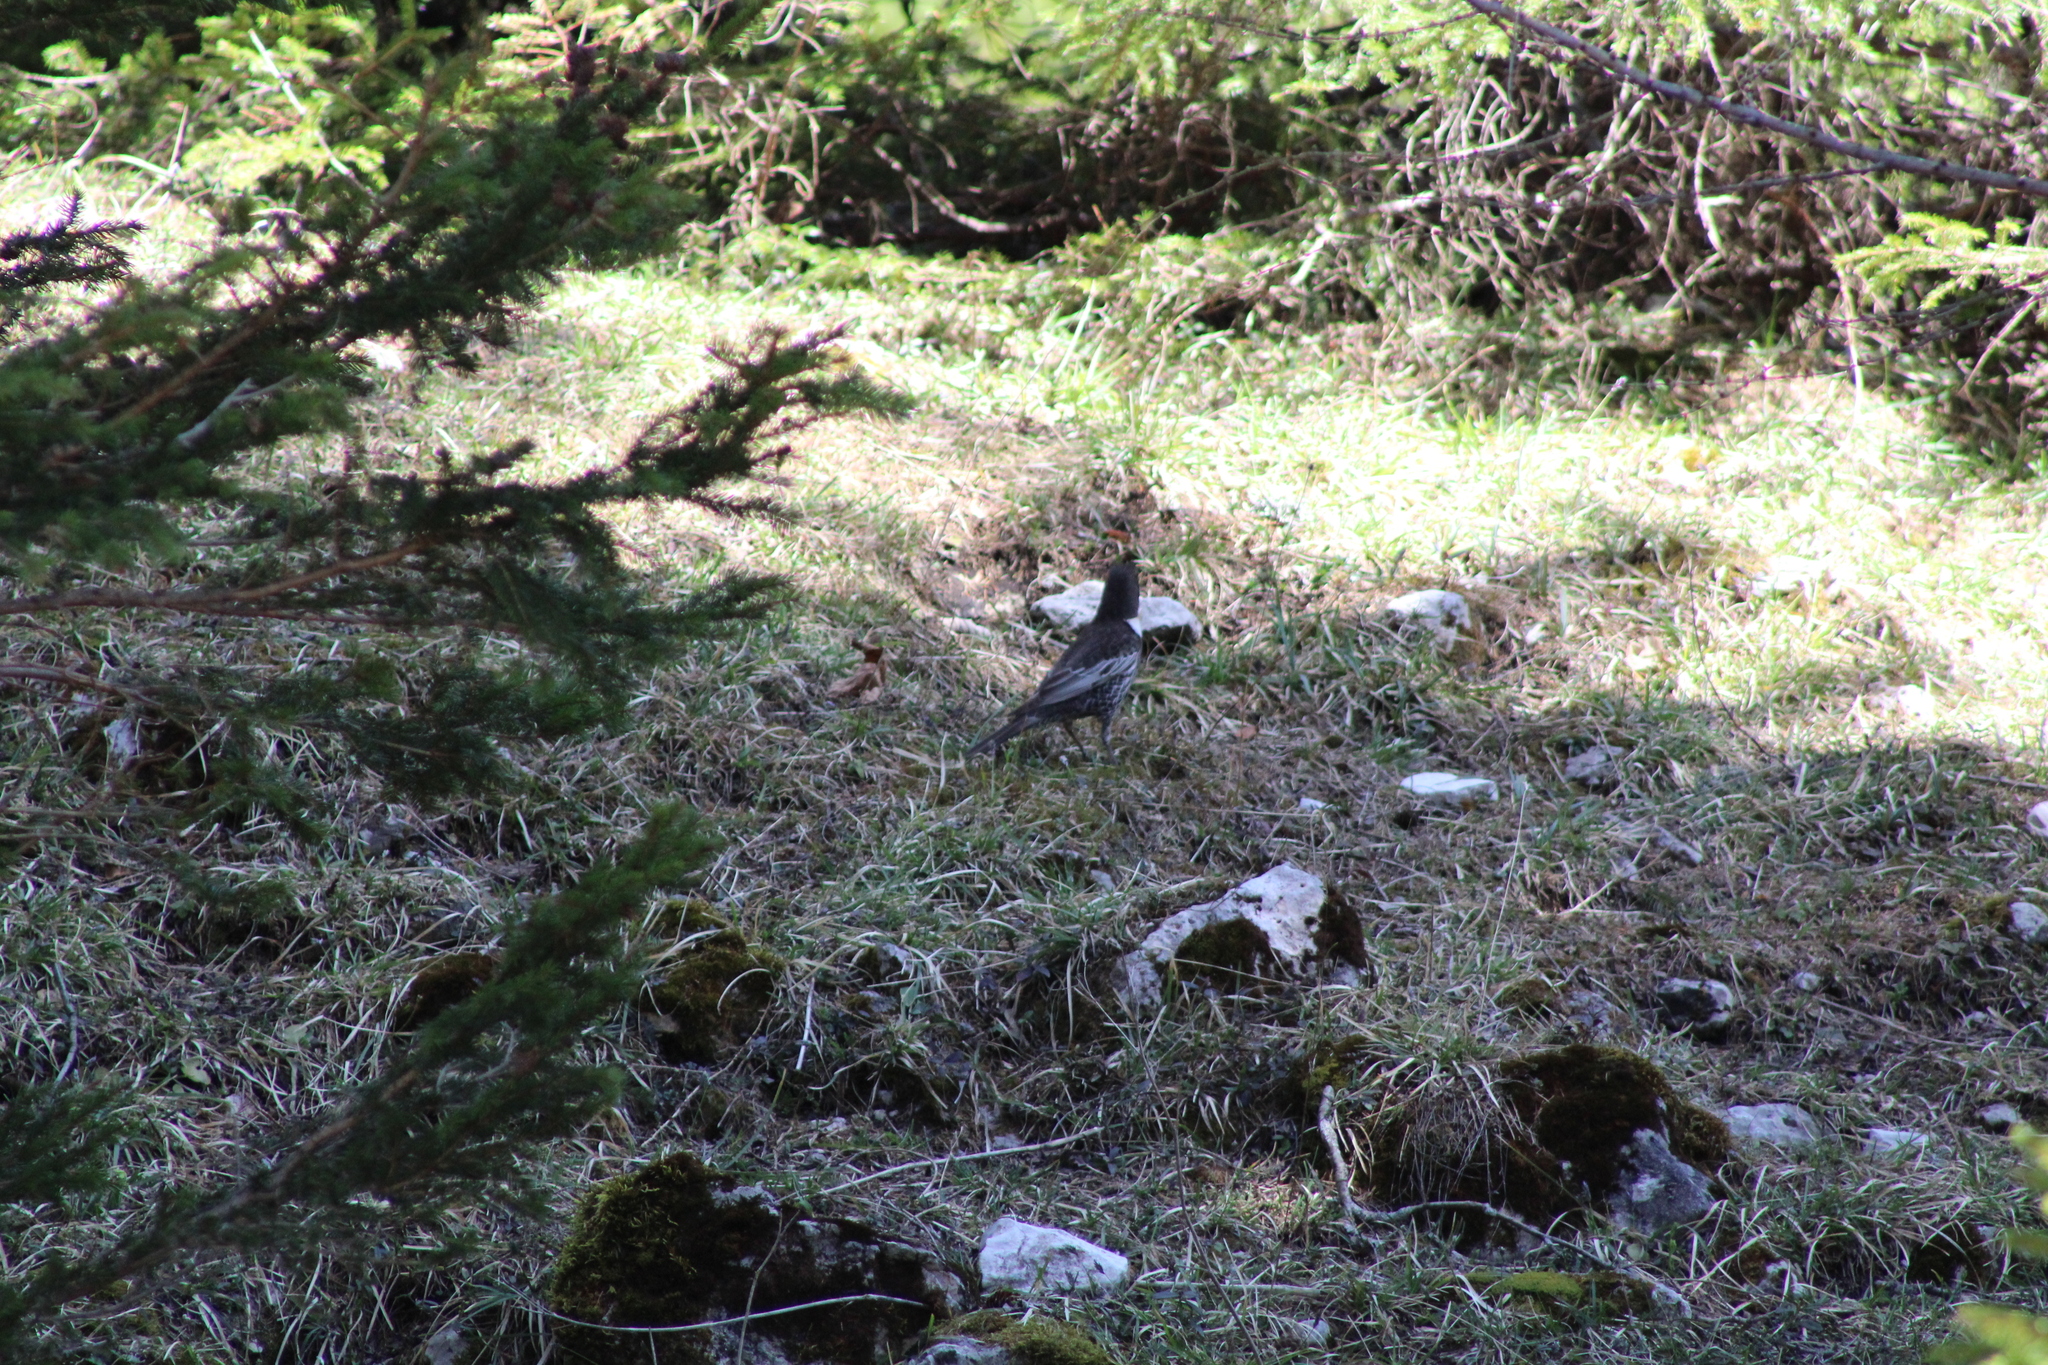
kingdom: Animalia
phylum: Chordata
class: Aves
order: Passeriformes
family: Turdidae
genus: Turdus
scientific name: Turdus torquatus
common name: Ring ouzel
